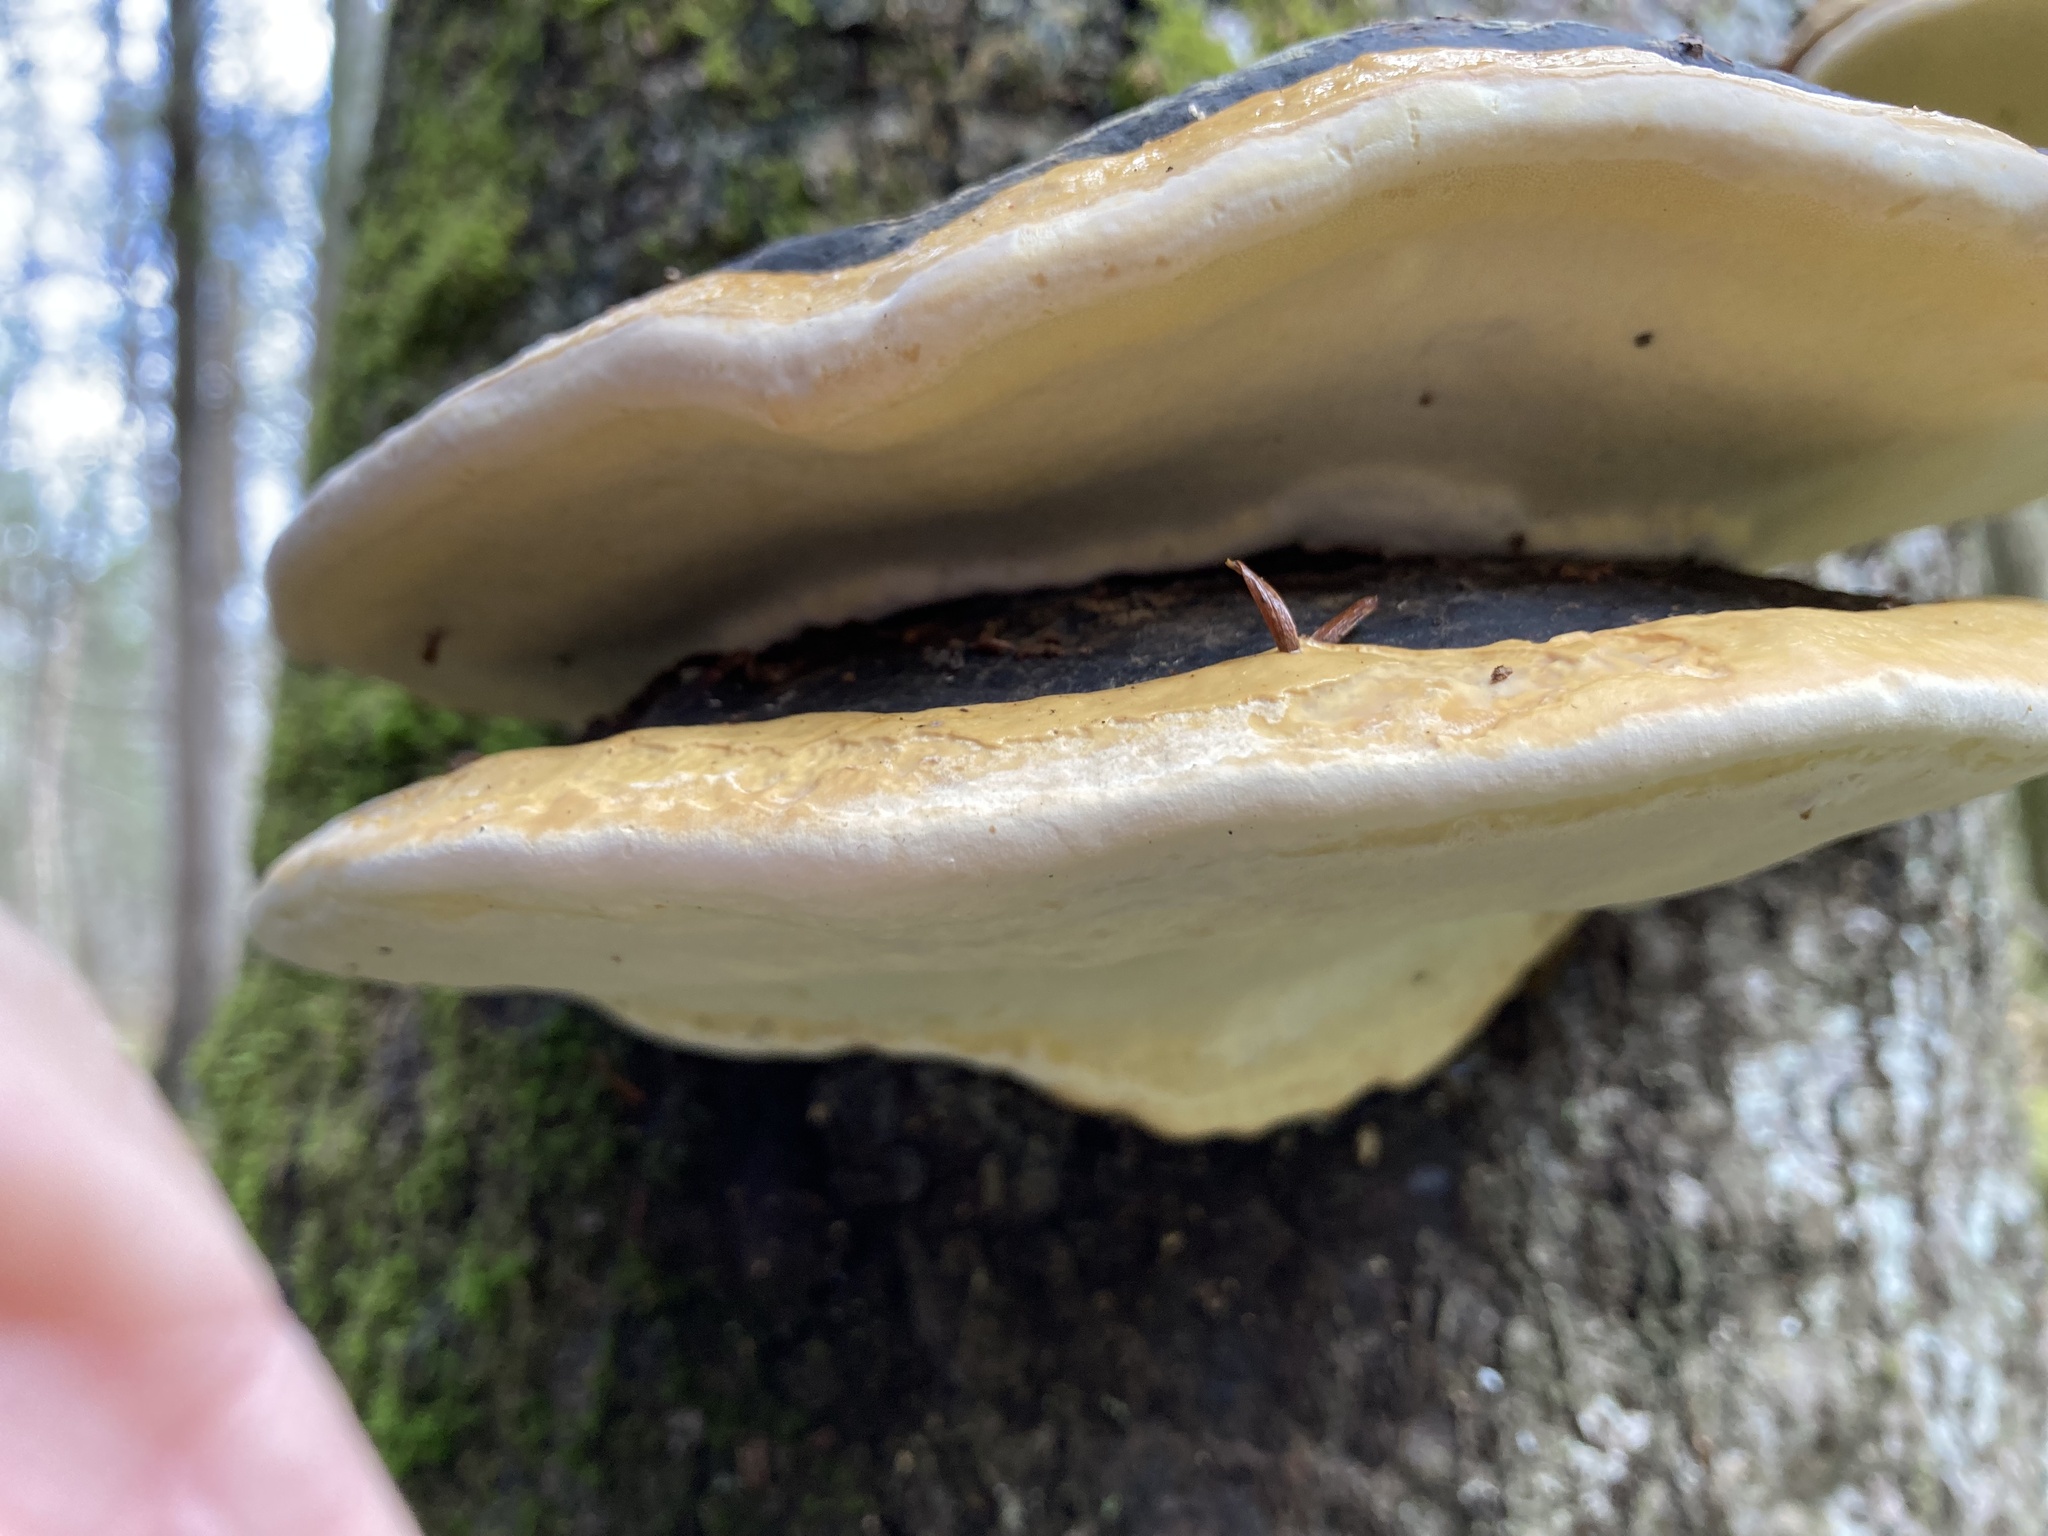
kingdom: Fungi
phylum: Basidiomycota
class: Agaricomycetes
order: Polyporales
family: Fomitopsidaceae
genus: Fomitopsis
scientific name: Fomitopsis mounceae
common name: Northern red belt
